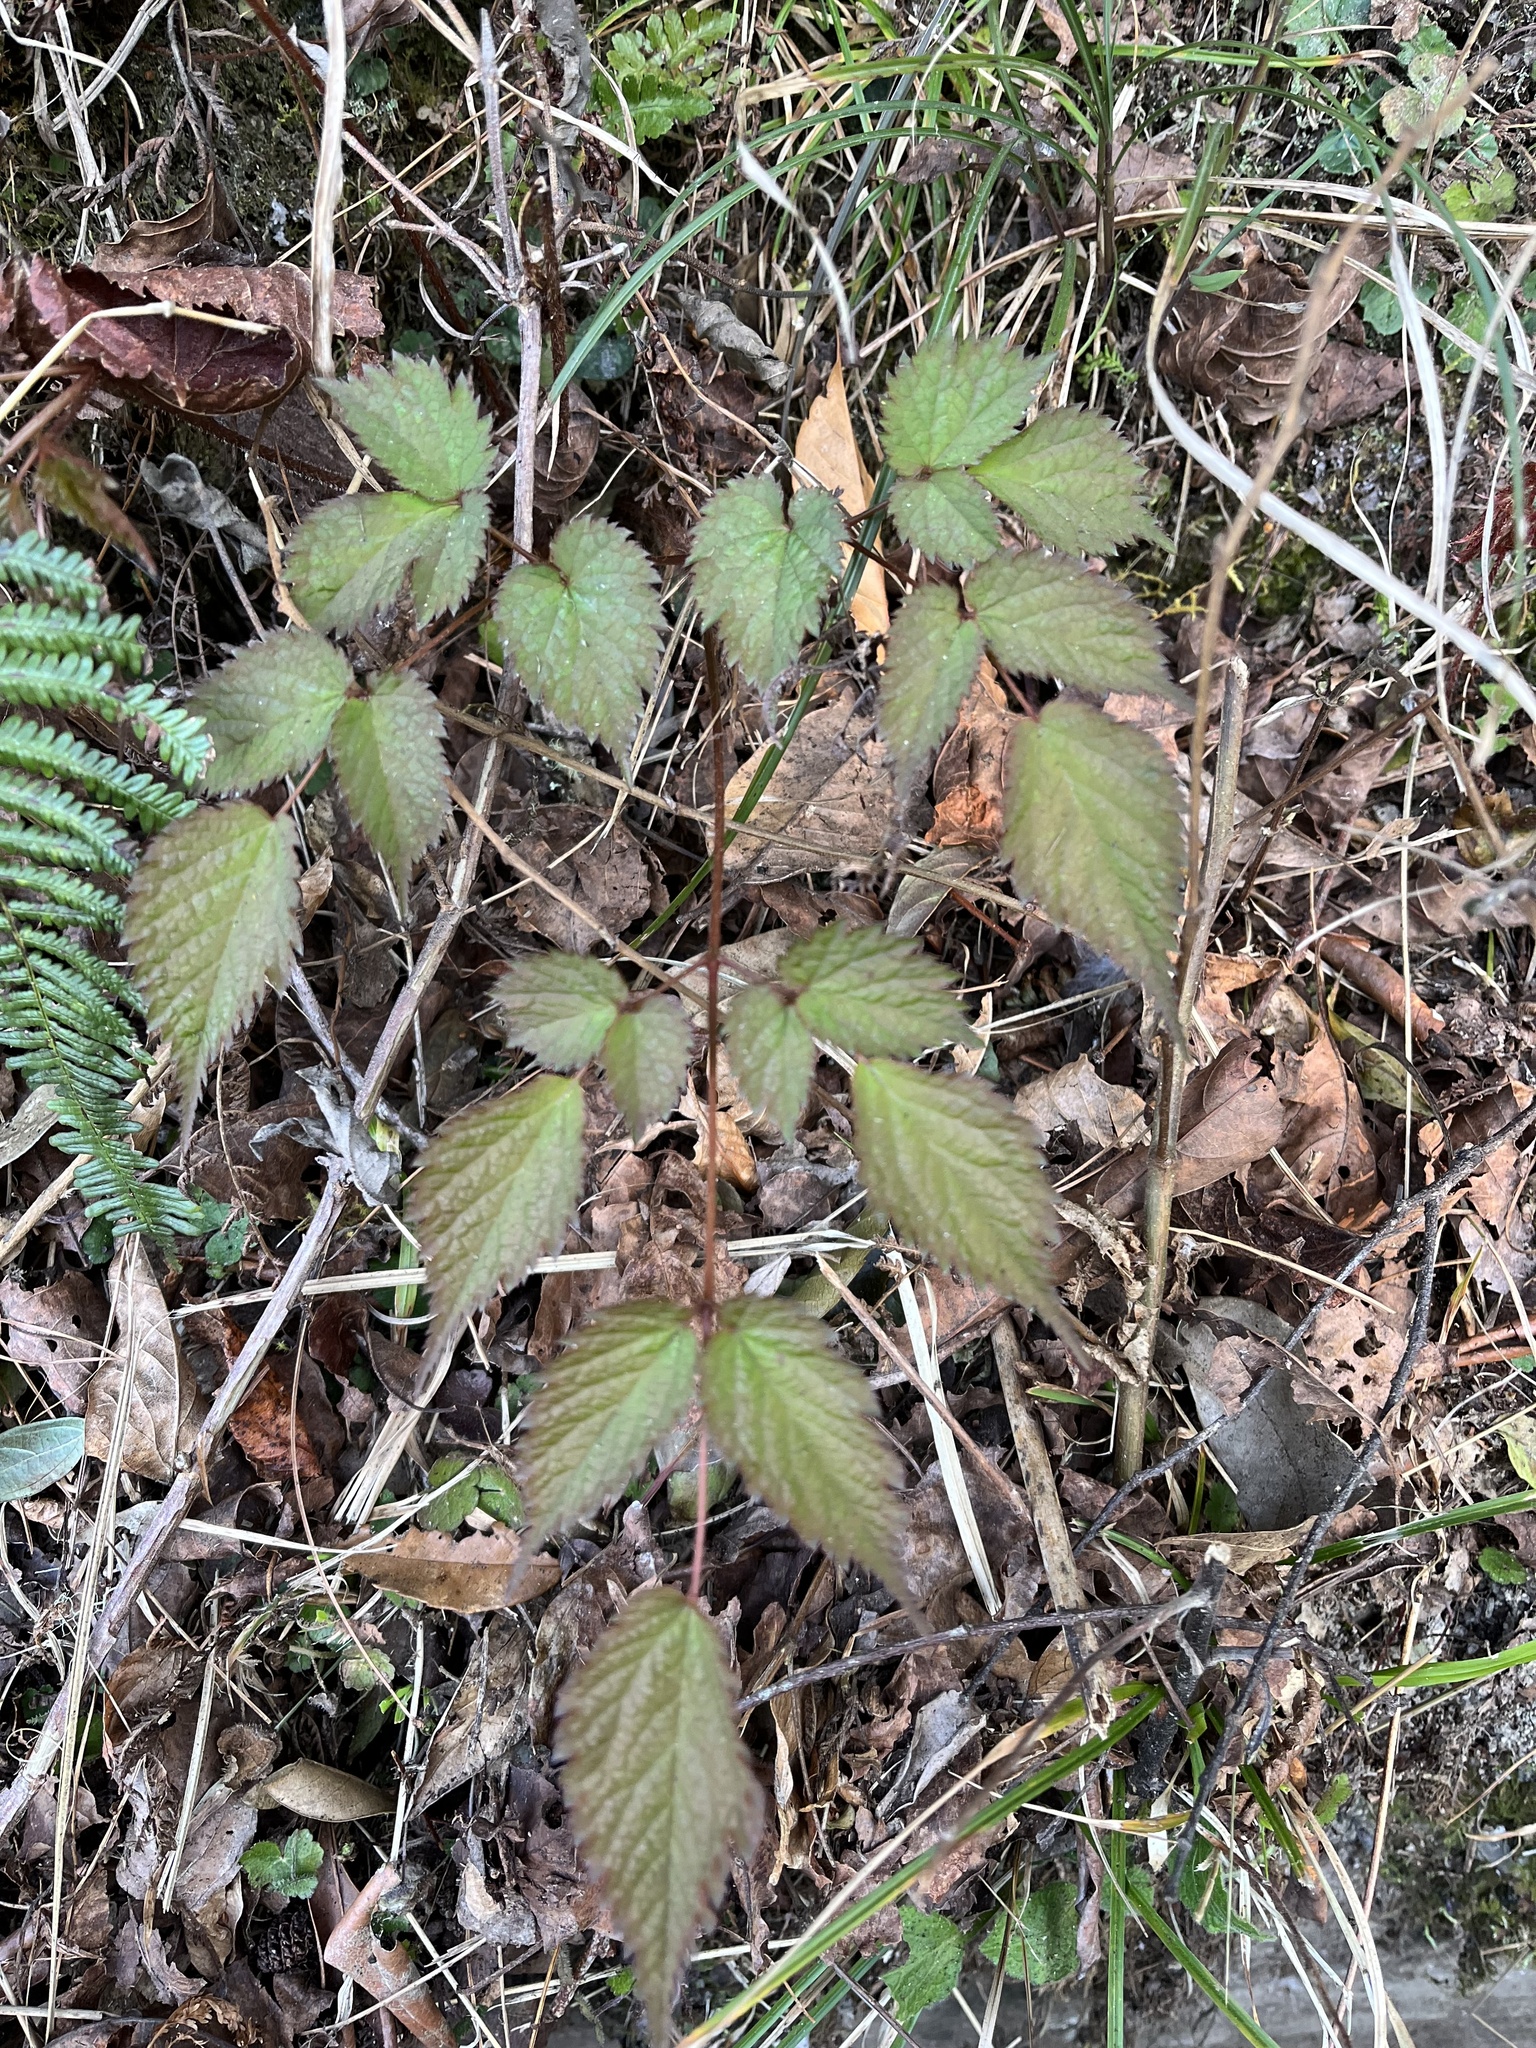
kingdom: Plantae
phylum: Tracheophyta
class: Magnoliopsida
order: Saxifragales
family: Saxifragaceae
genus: Astilbe
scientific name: Astilbe longicarpa
